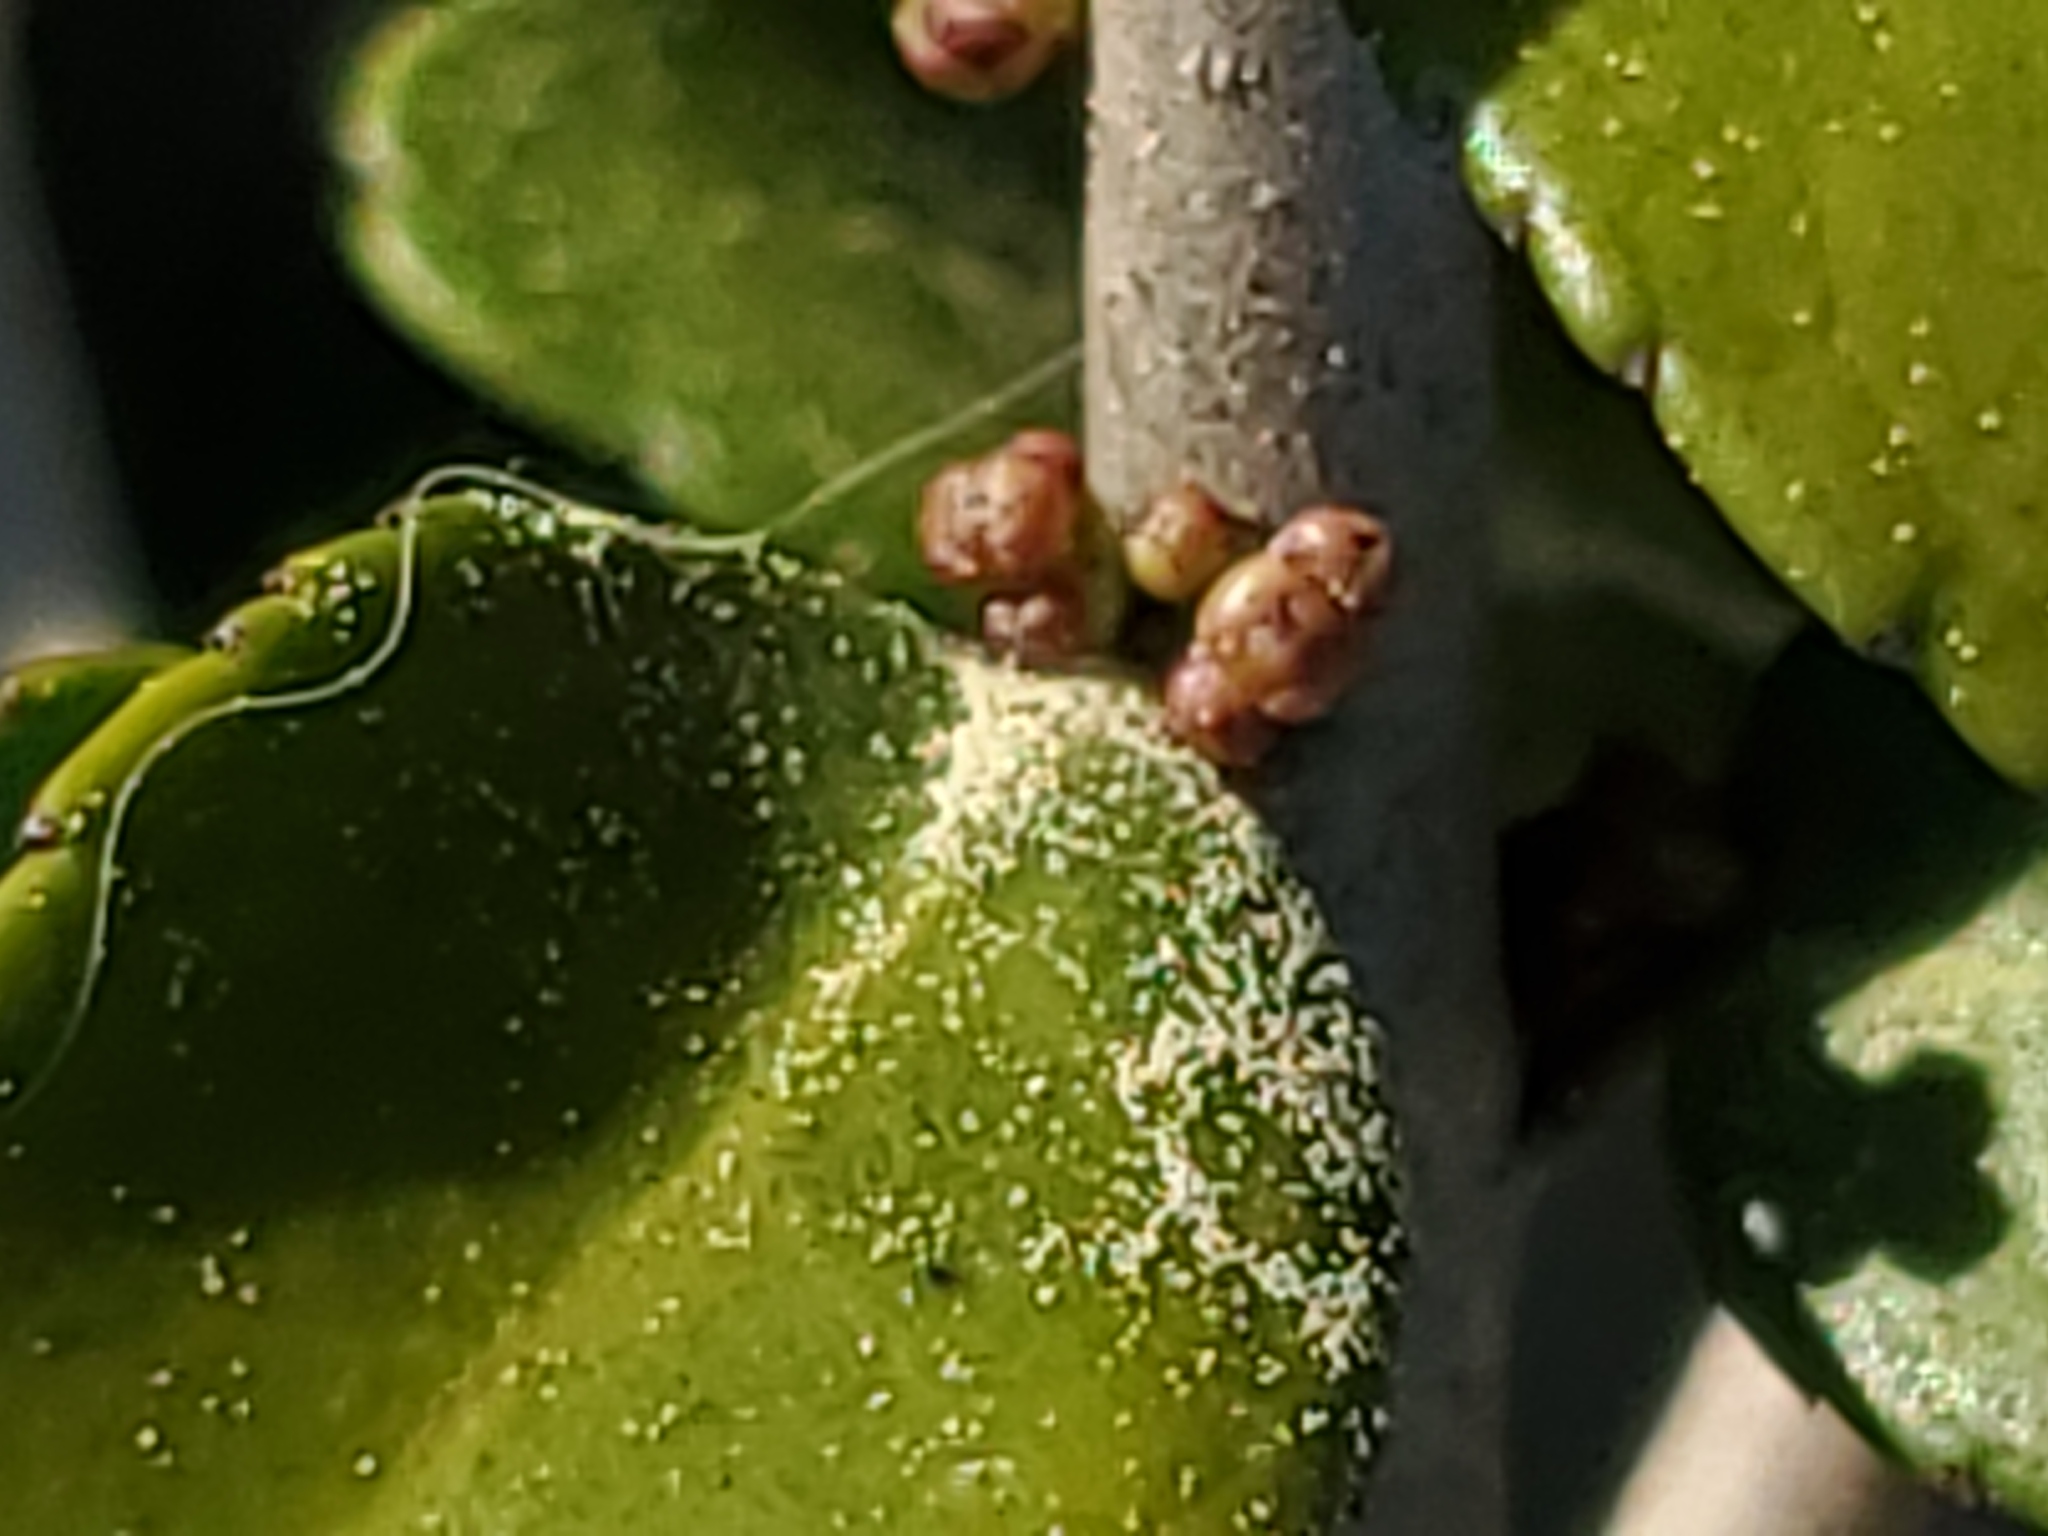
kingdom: Plantae
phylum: Tracheophyta
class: Magnoliopsida
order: Aquifoliales
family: Aquifoliaceae
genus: Ilex
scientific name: Ilex vomitoria
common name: Yaupon holly
